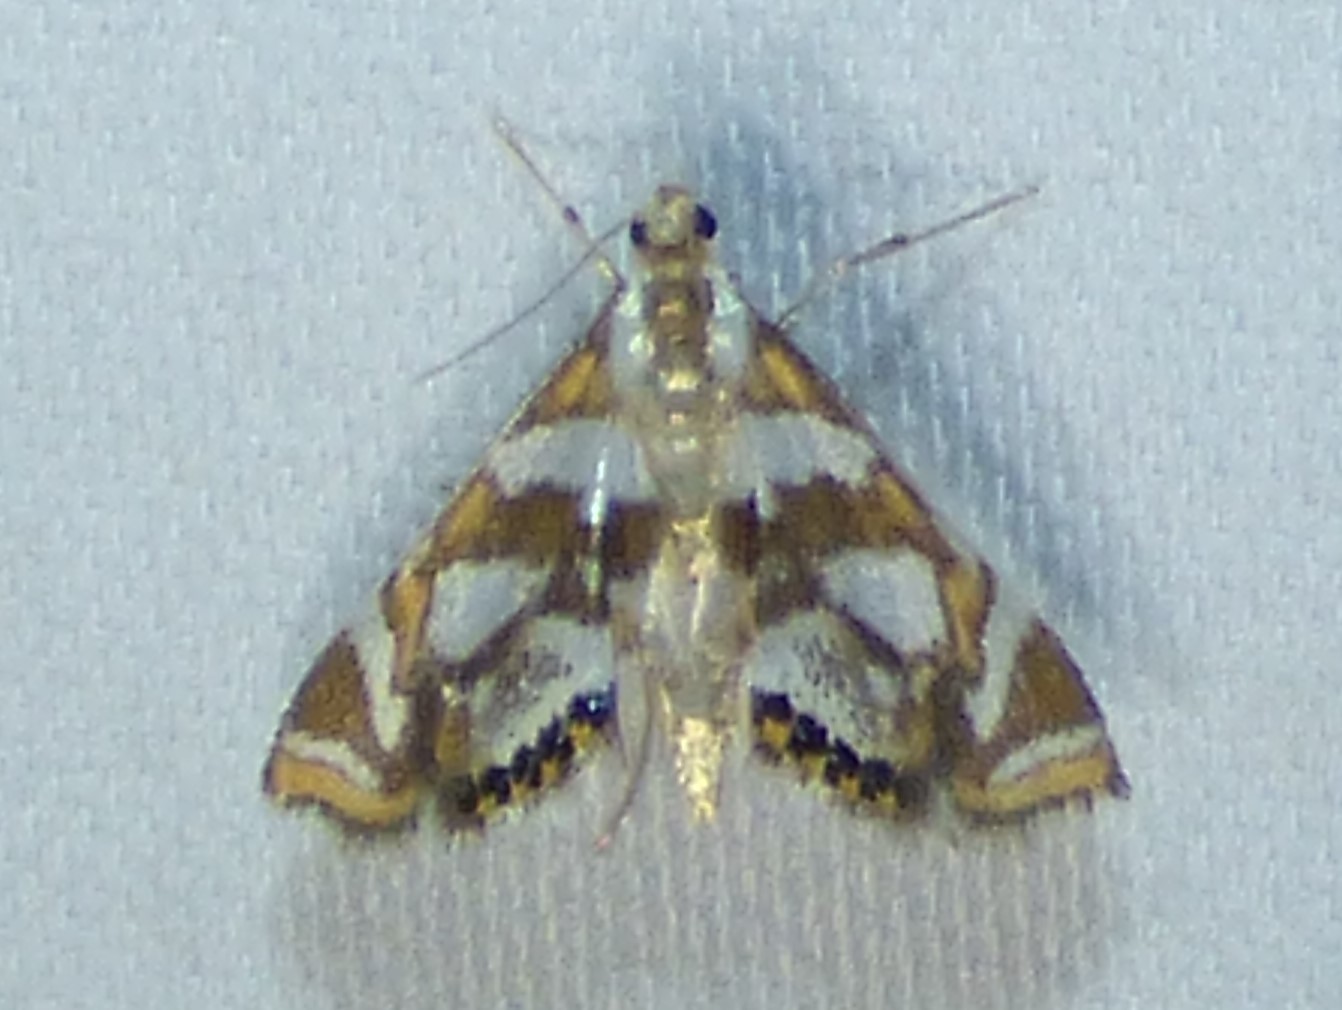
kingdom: Animalia
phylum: Arthropoda
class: Insecta
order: Lepidoptera
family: Crambidae
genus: Chrysendeton
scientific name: Chrysendeton medicinalis
